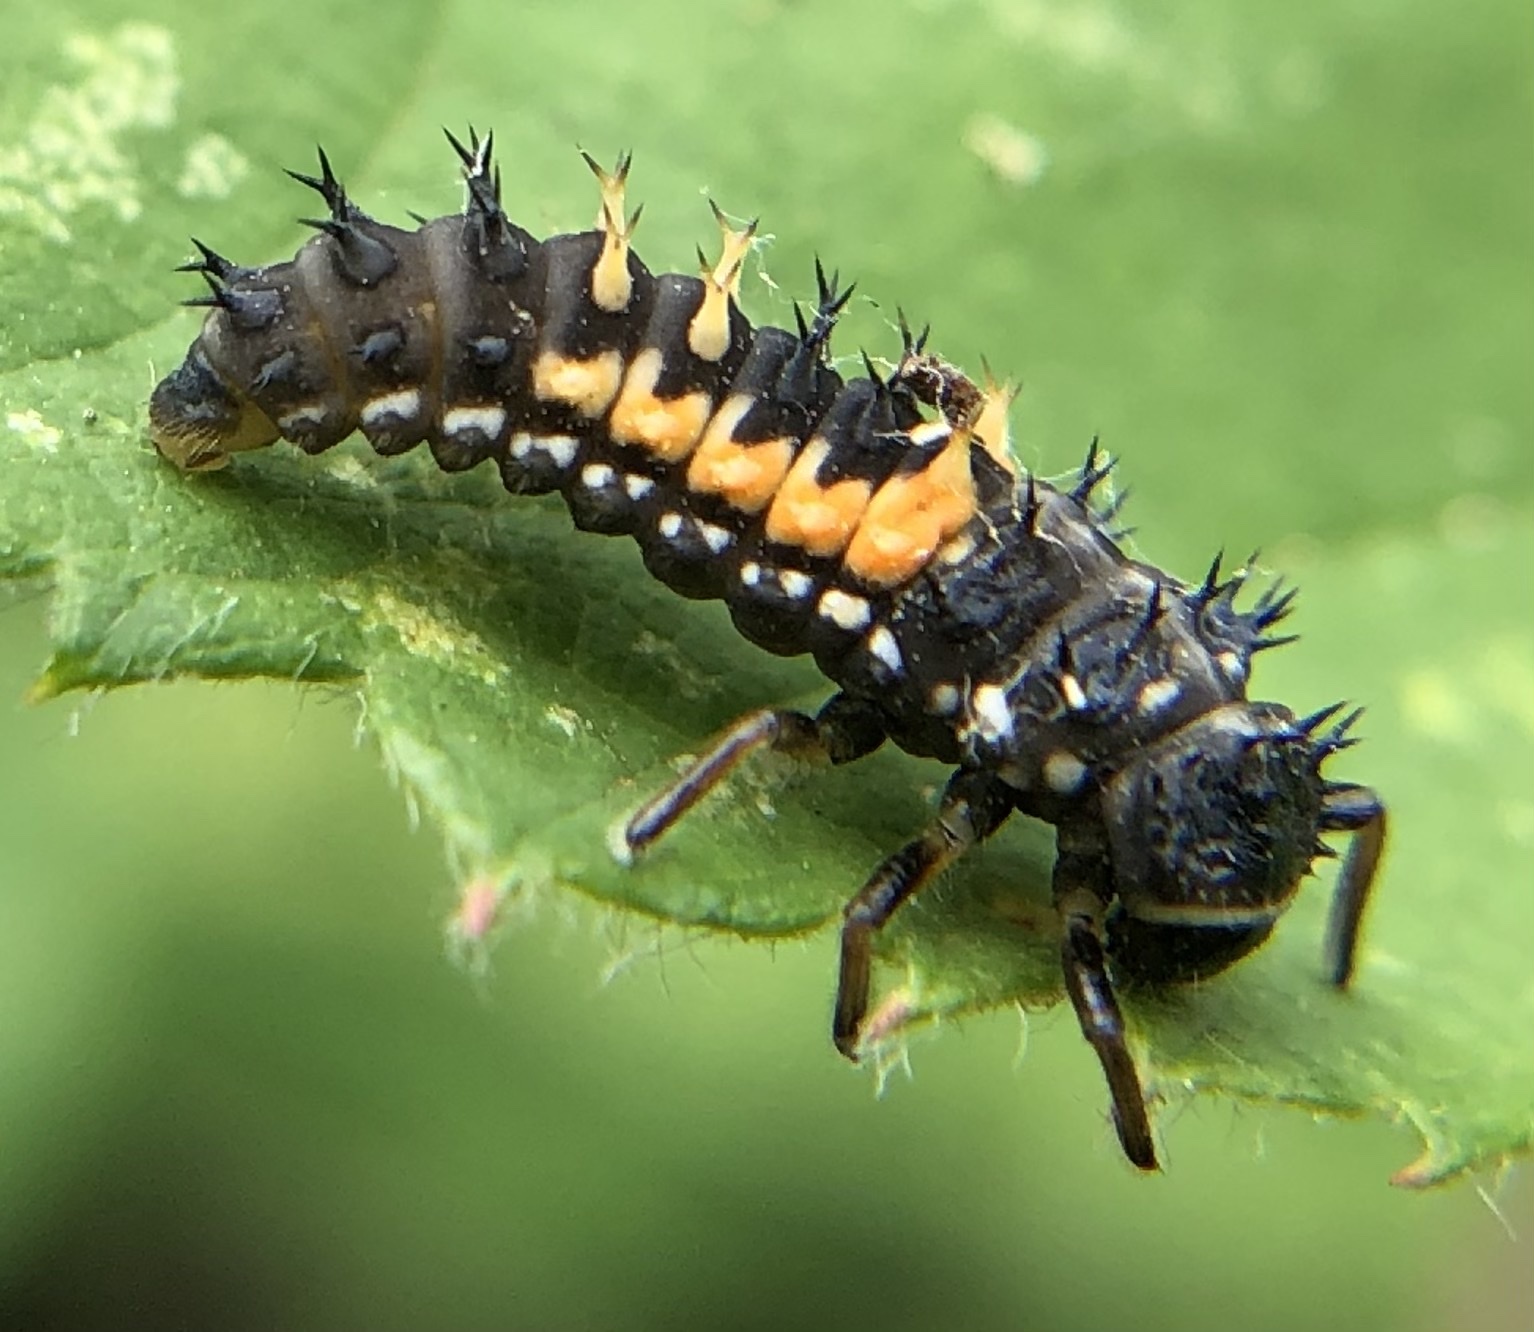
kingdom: Animalia
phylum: Arthropoda
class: Insecta
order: Coleoptera
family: Coccinellidae
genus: Harmonia
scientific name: Harmonia axyridis
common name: Harlequin ladybird
